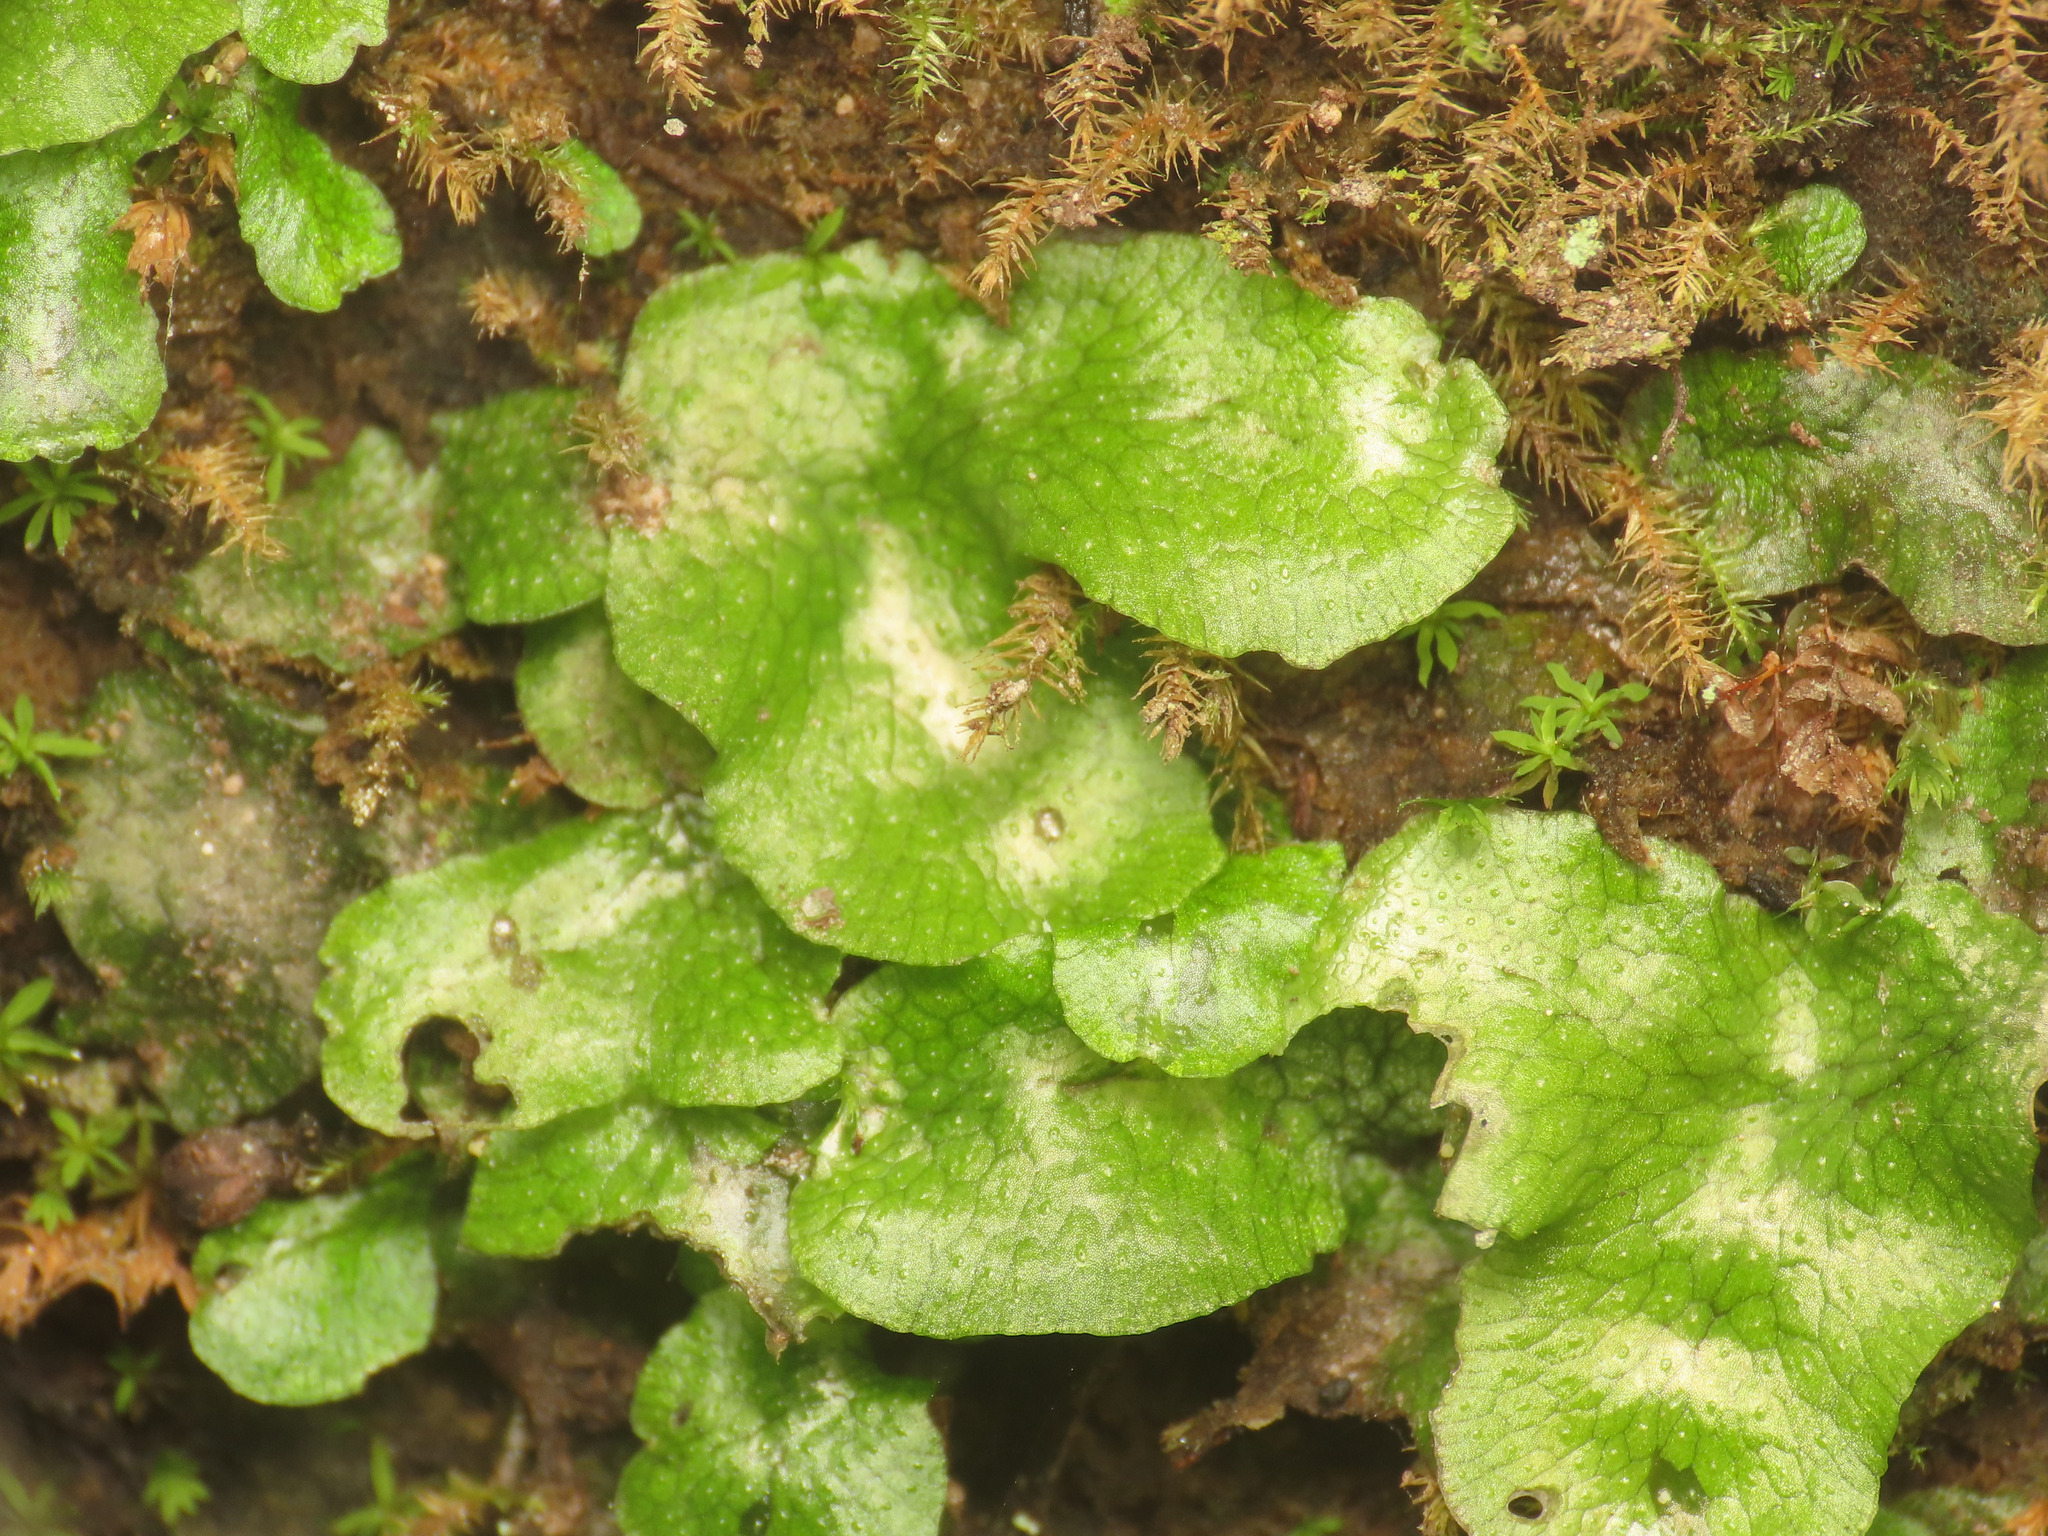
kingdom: Plantae
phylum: Marchantiophyta
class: Marchantiopsida
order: Marchantiales
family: Conocephalaceae
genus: Conocephalum
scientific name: Conocephalum conicum
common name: Great scented liverwort
